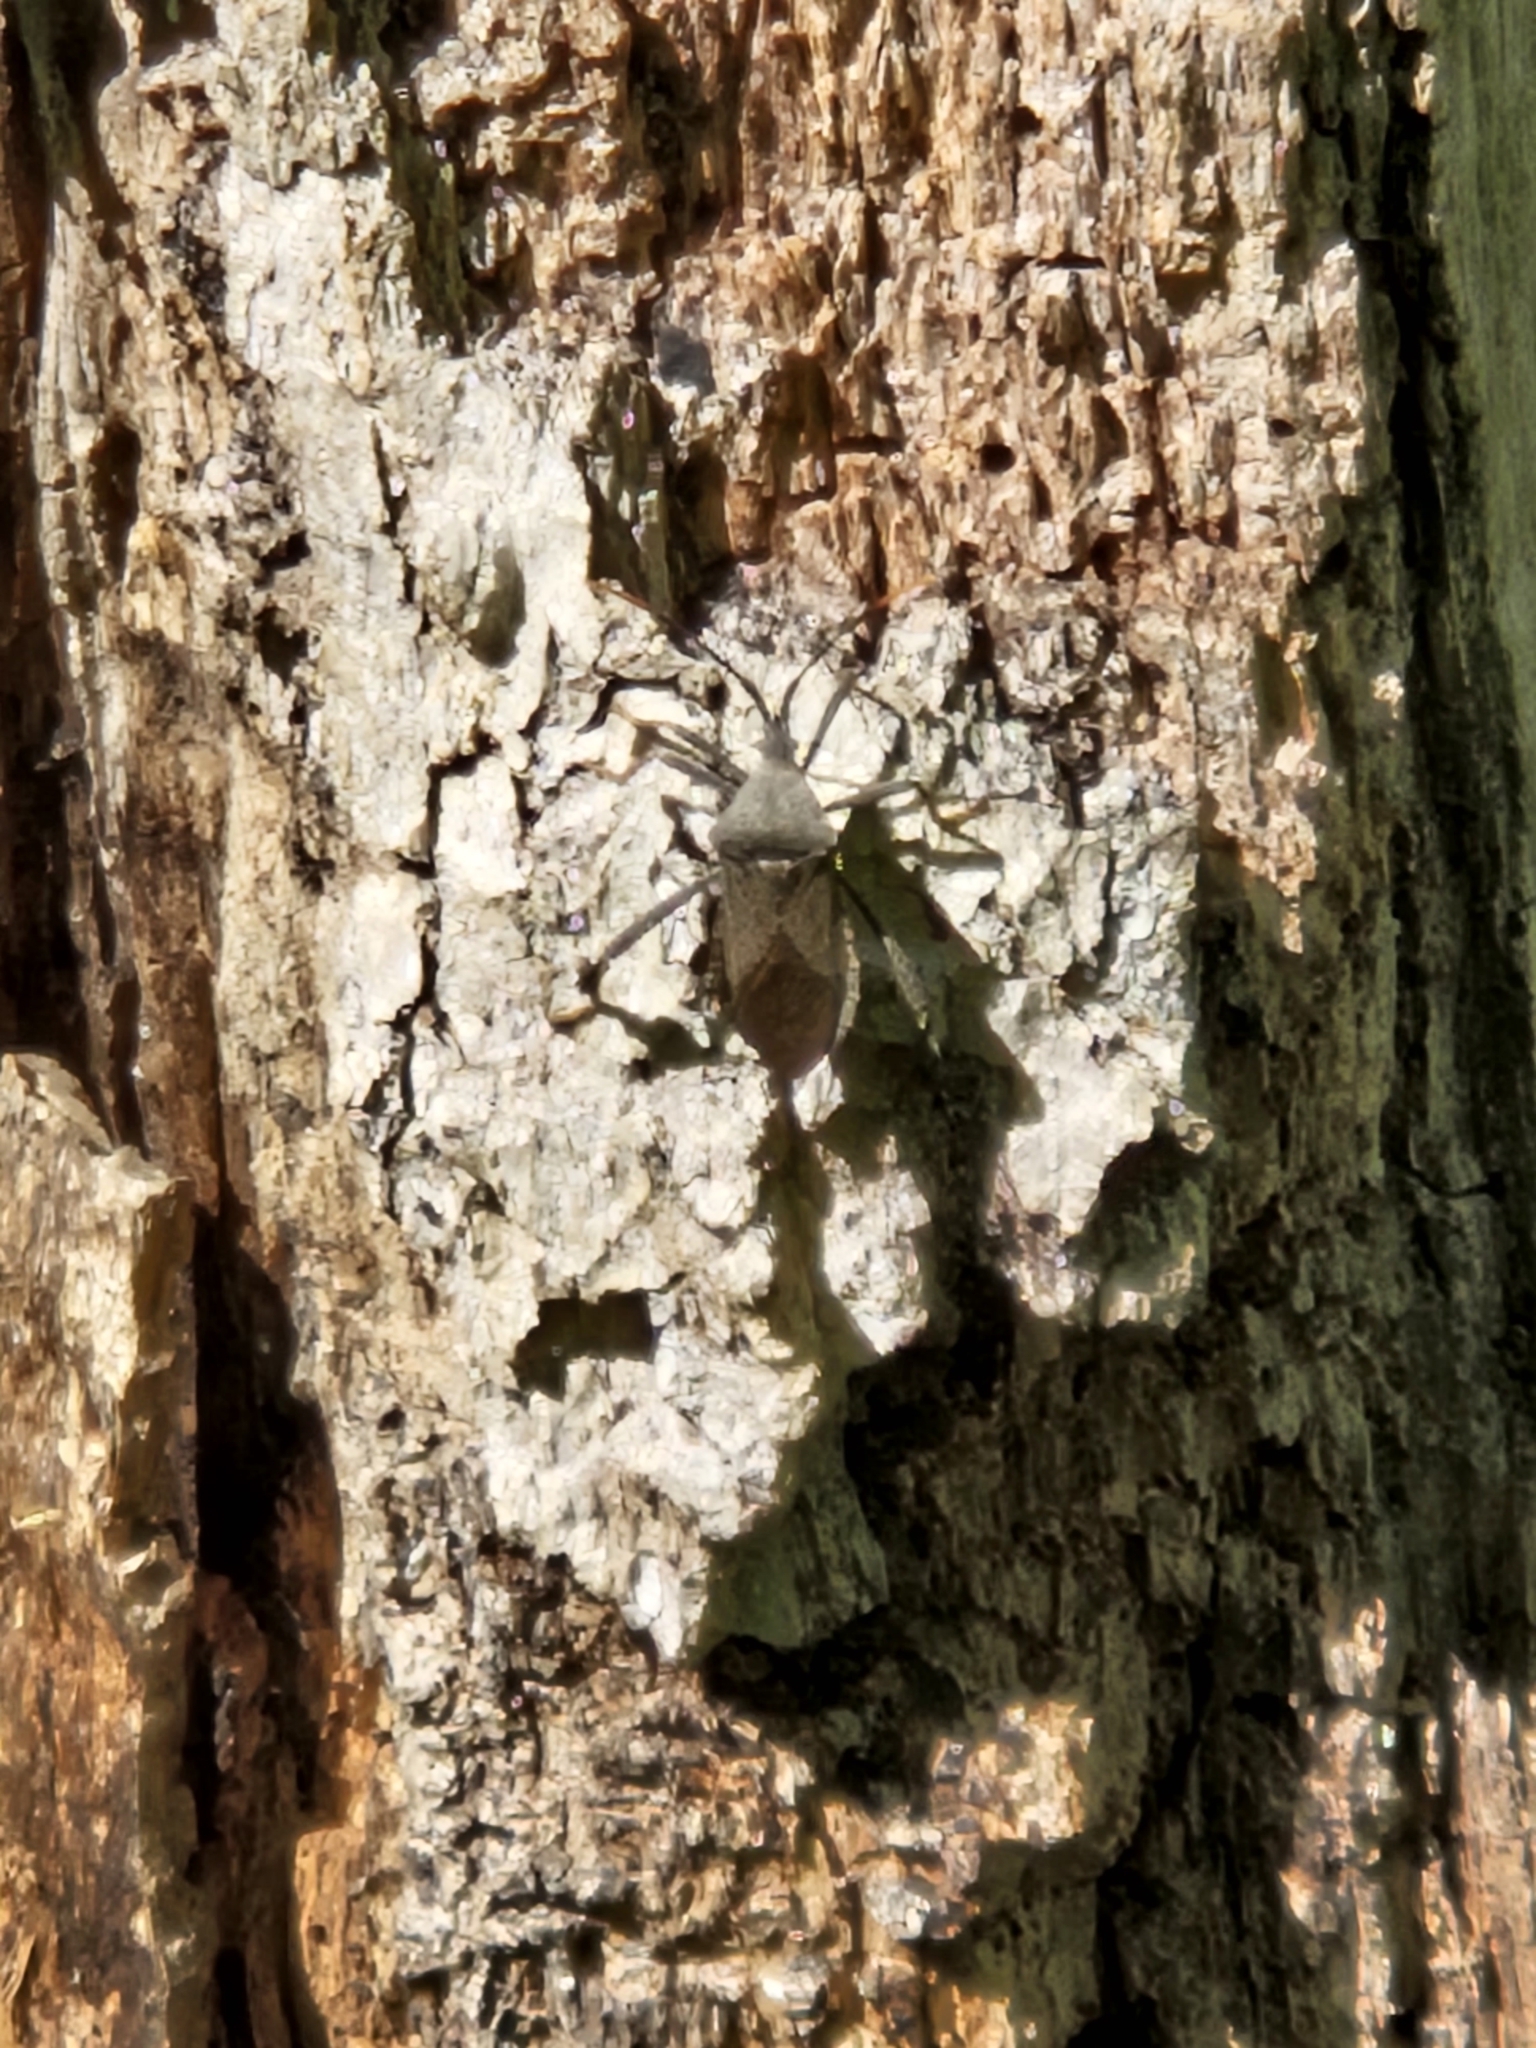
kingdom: Animalia
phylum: Arthropoda
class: Insecta
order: Hemiptera
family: Coreidae
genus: Acanthocephala
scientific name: Acanthocephala terminalis
